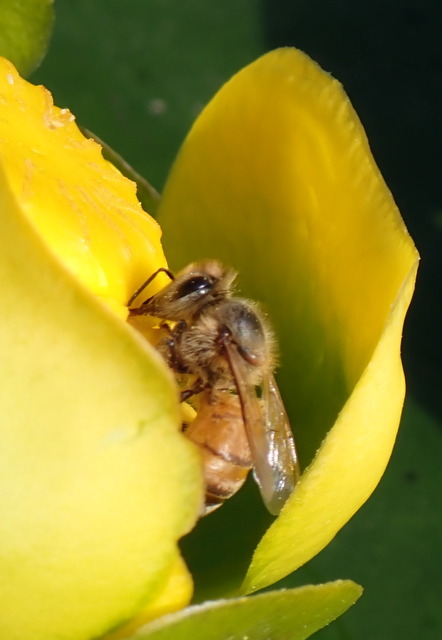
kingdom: Animalia
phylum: Arthropoda
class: Insecta
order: Hymenoptera
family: Apidae
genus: Apis
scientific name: Apis mellifera
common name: Honey bee
